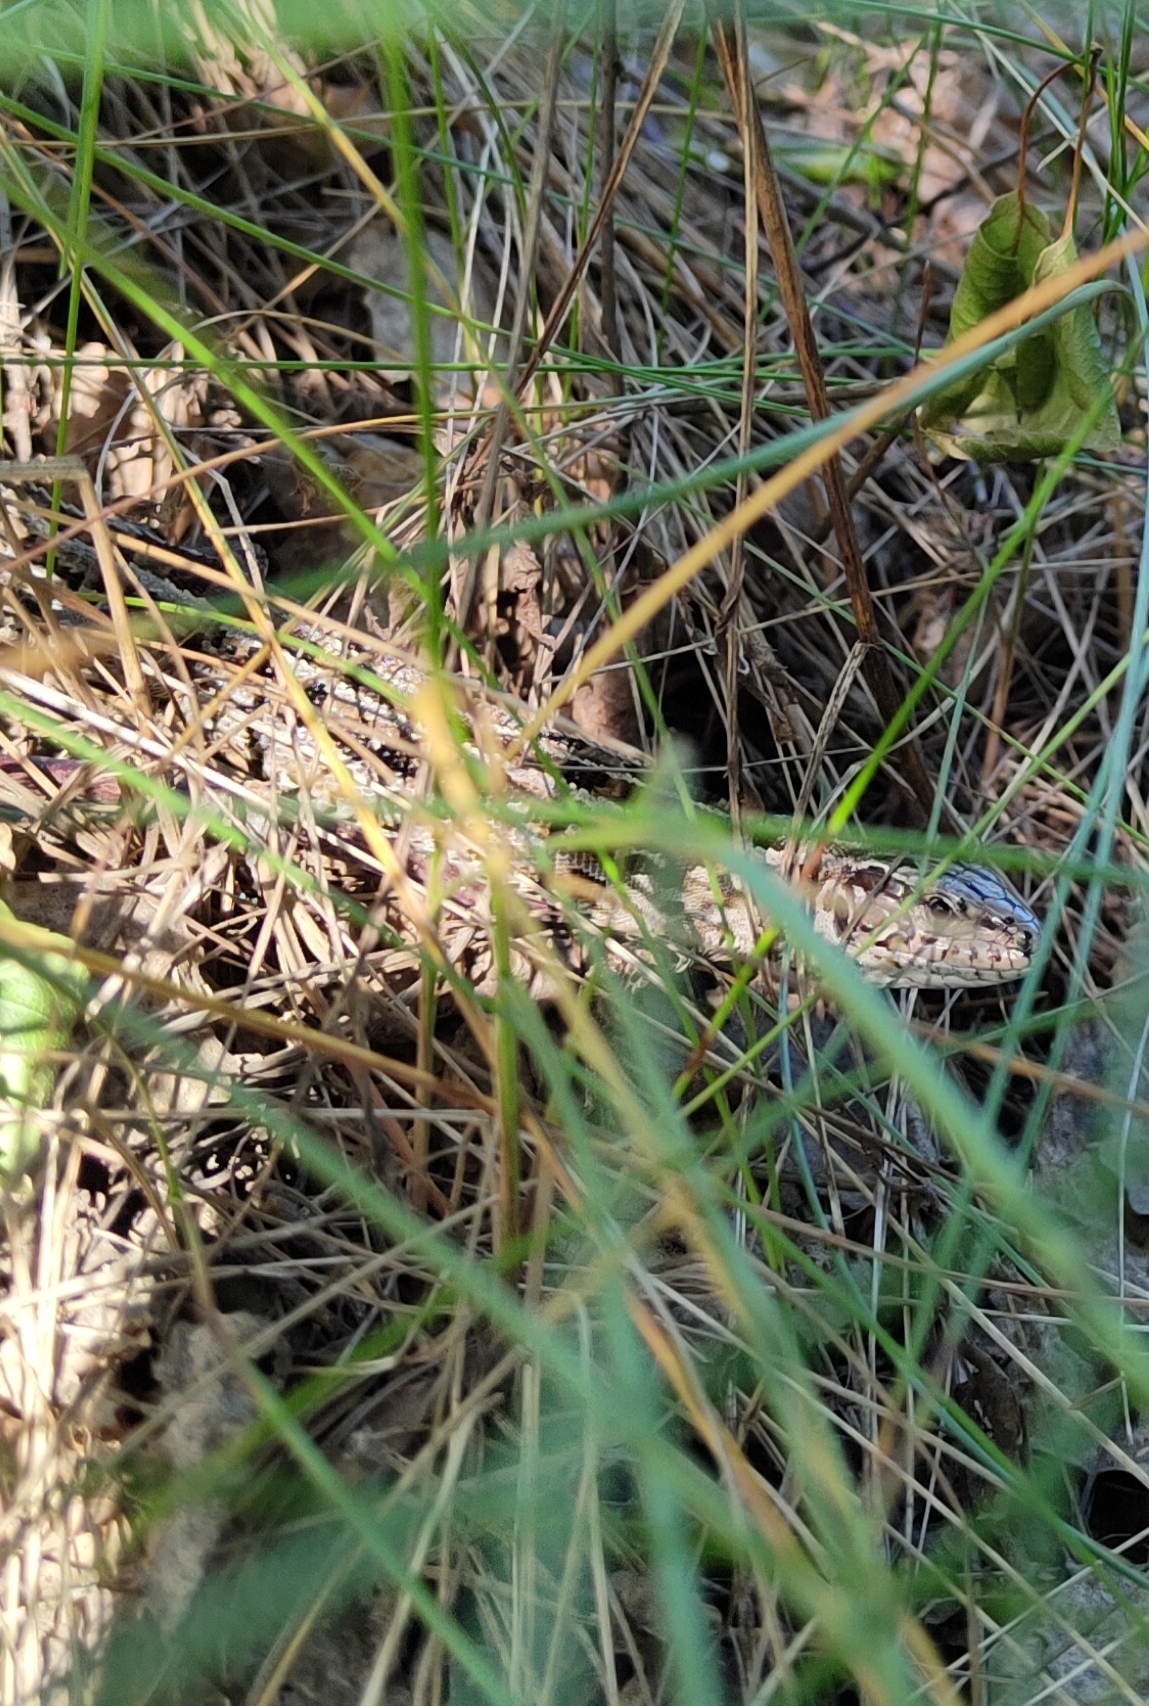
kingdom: Animalia
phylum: Chordata
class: Squamata
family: Lacertidae
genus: Lacerta
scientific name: Lacerta agilis
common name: Sand lizard
